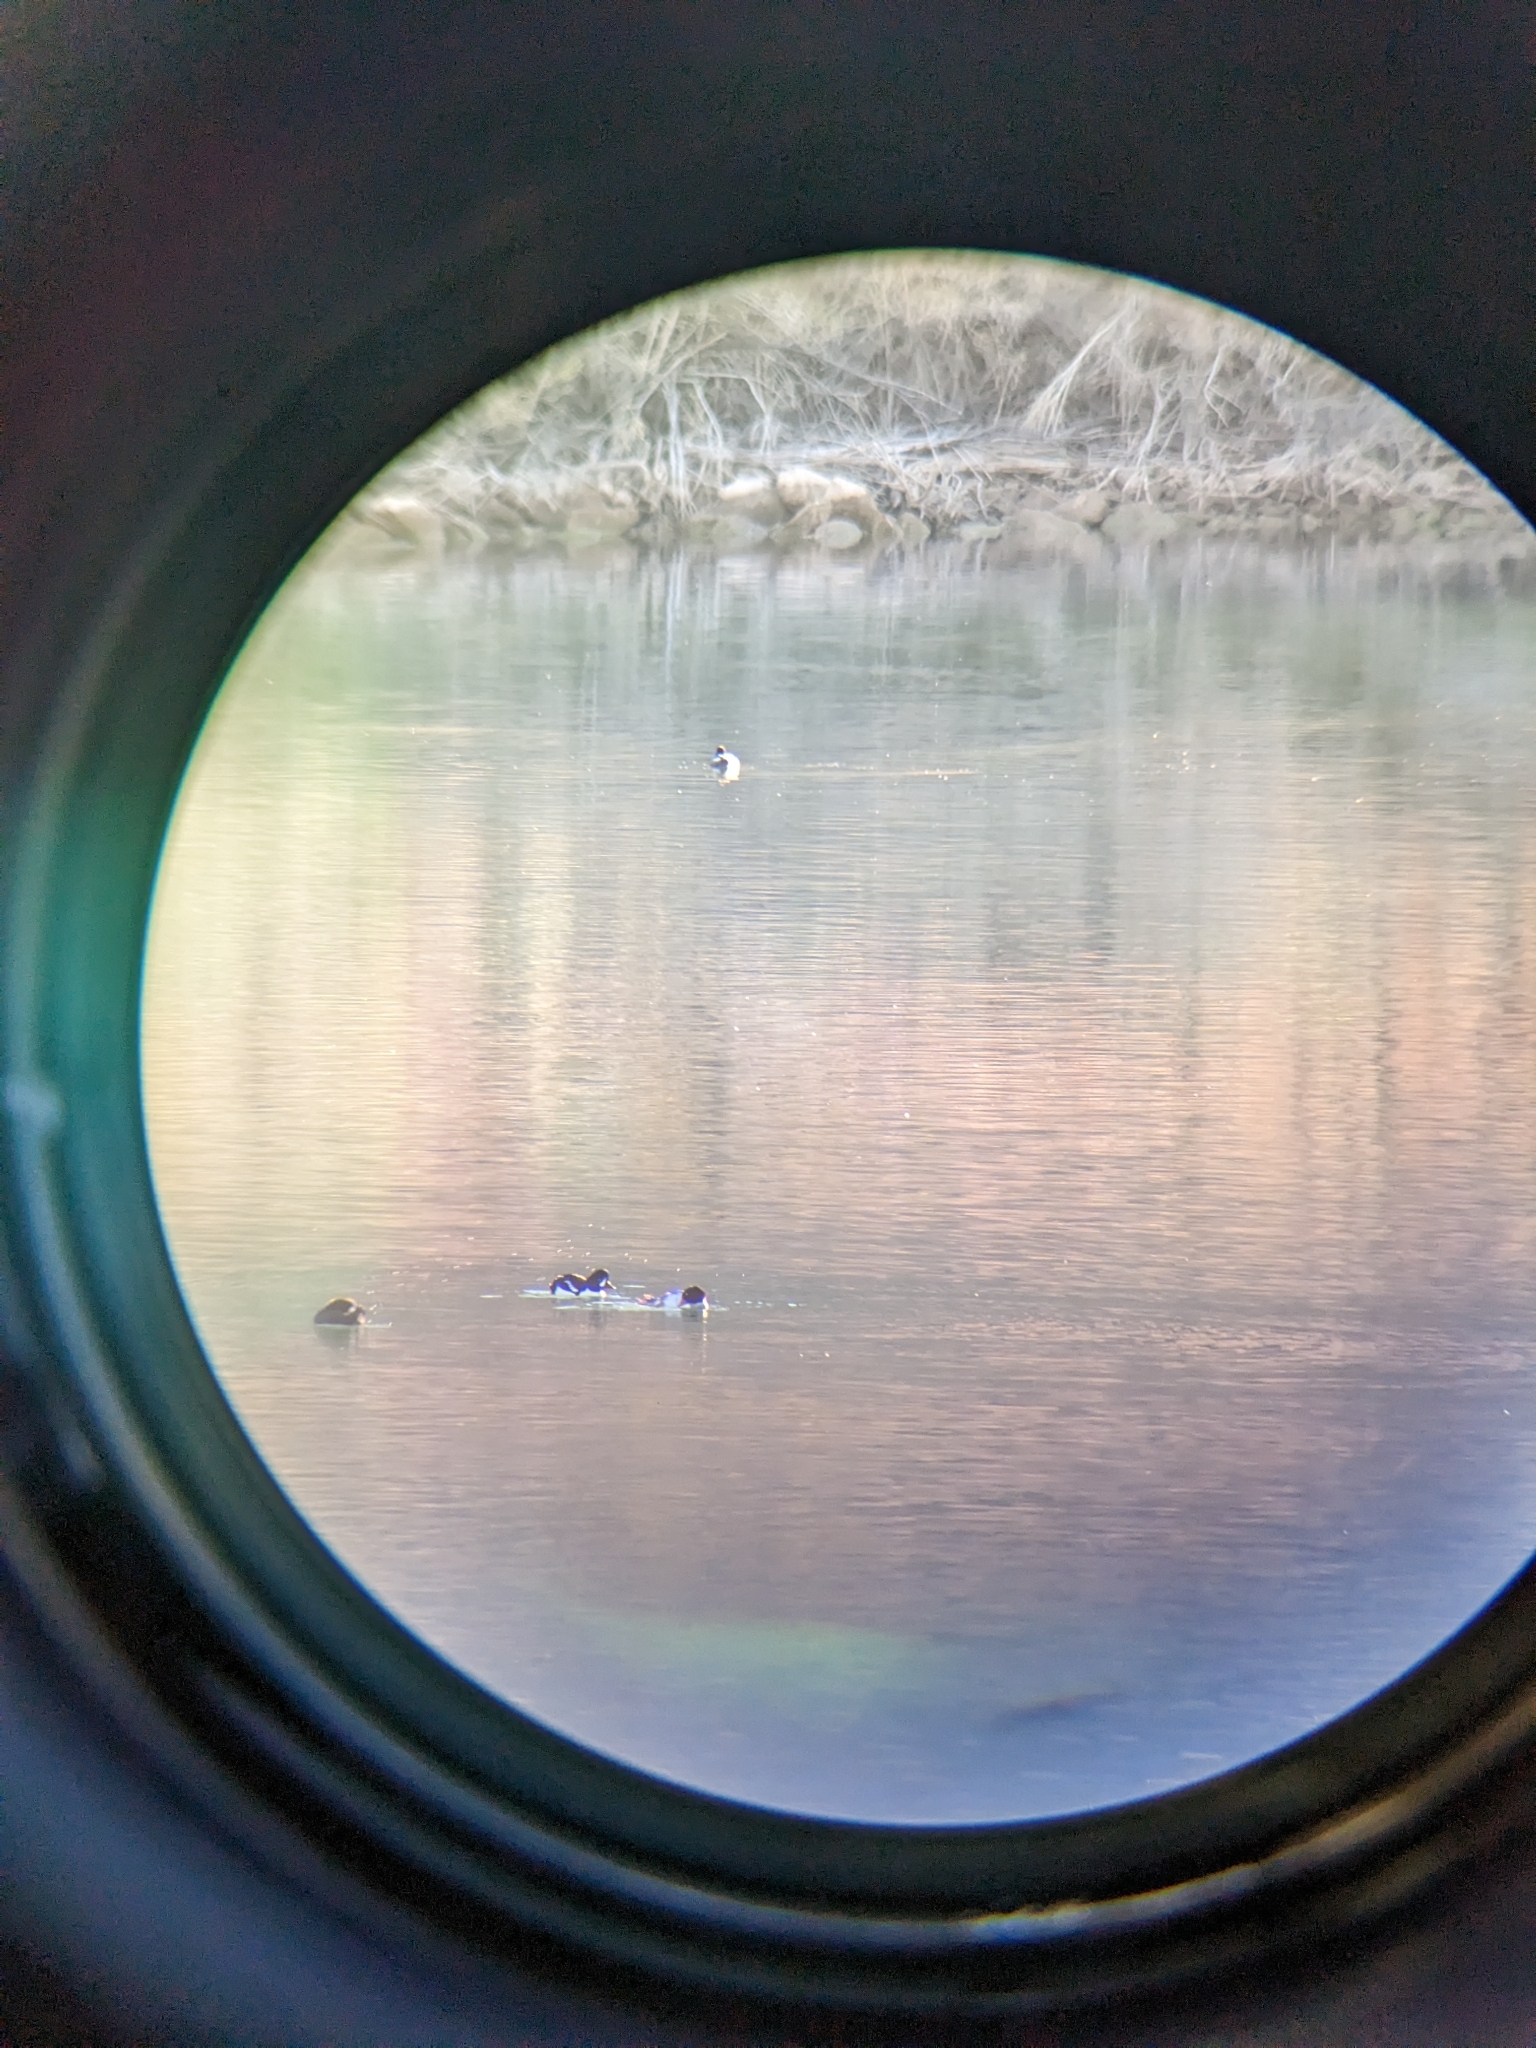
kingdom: Animalia
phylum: Chordata
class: Aves
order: Anseriformes
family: Anatidae
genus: Bucephala
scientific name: Bucephala islandica
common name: Barrow's goldeneye
